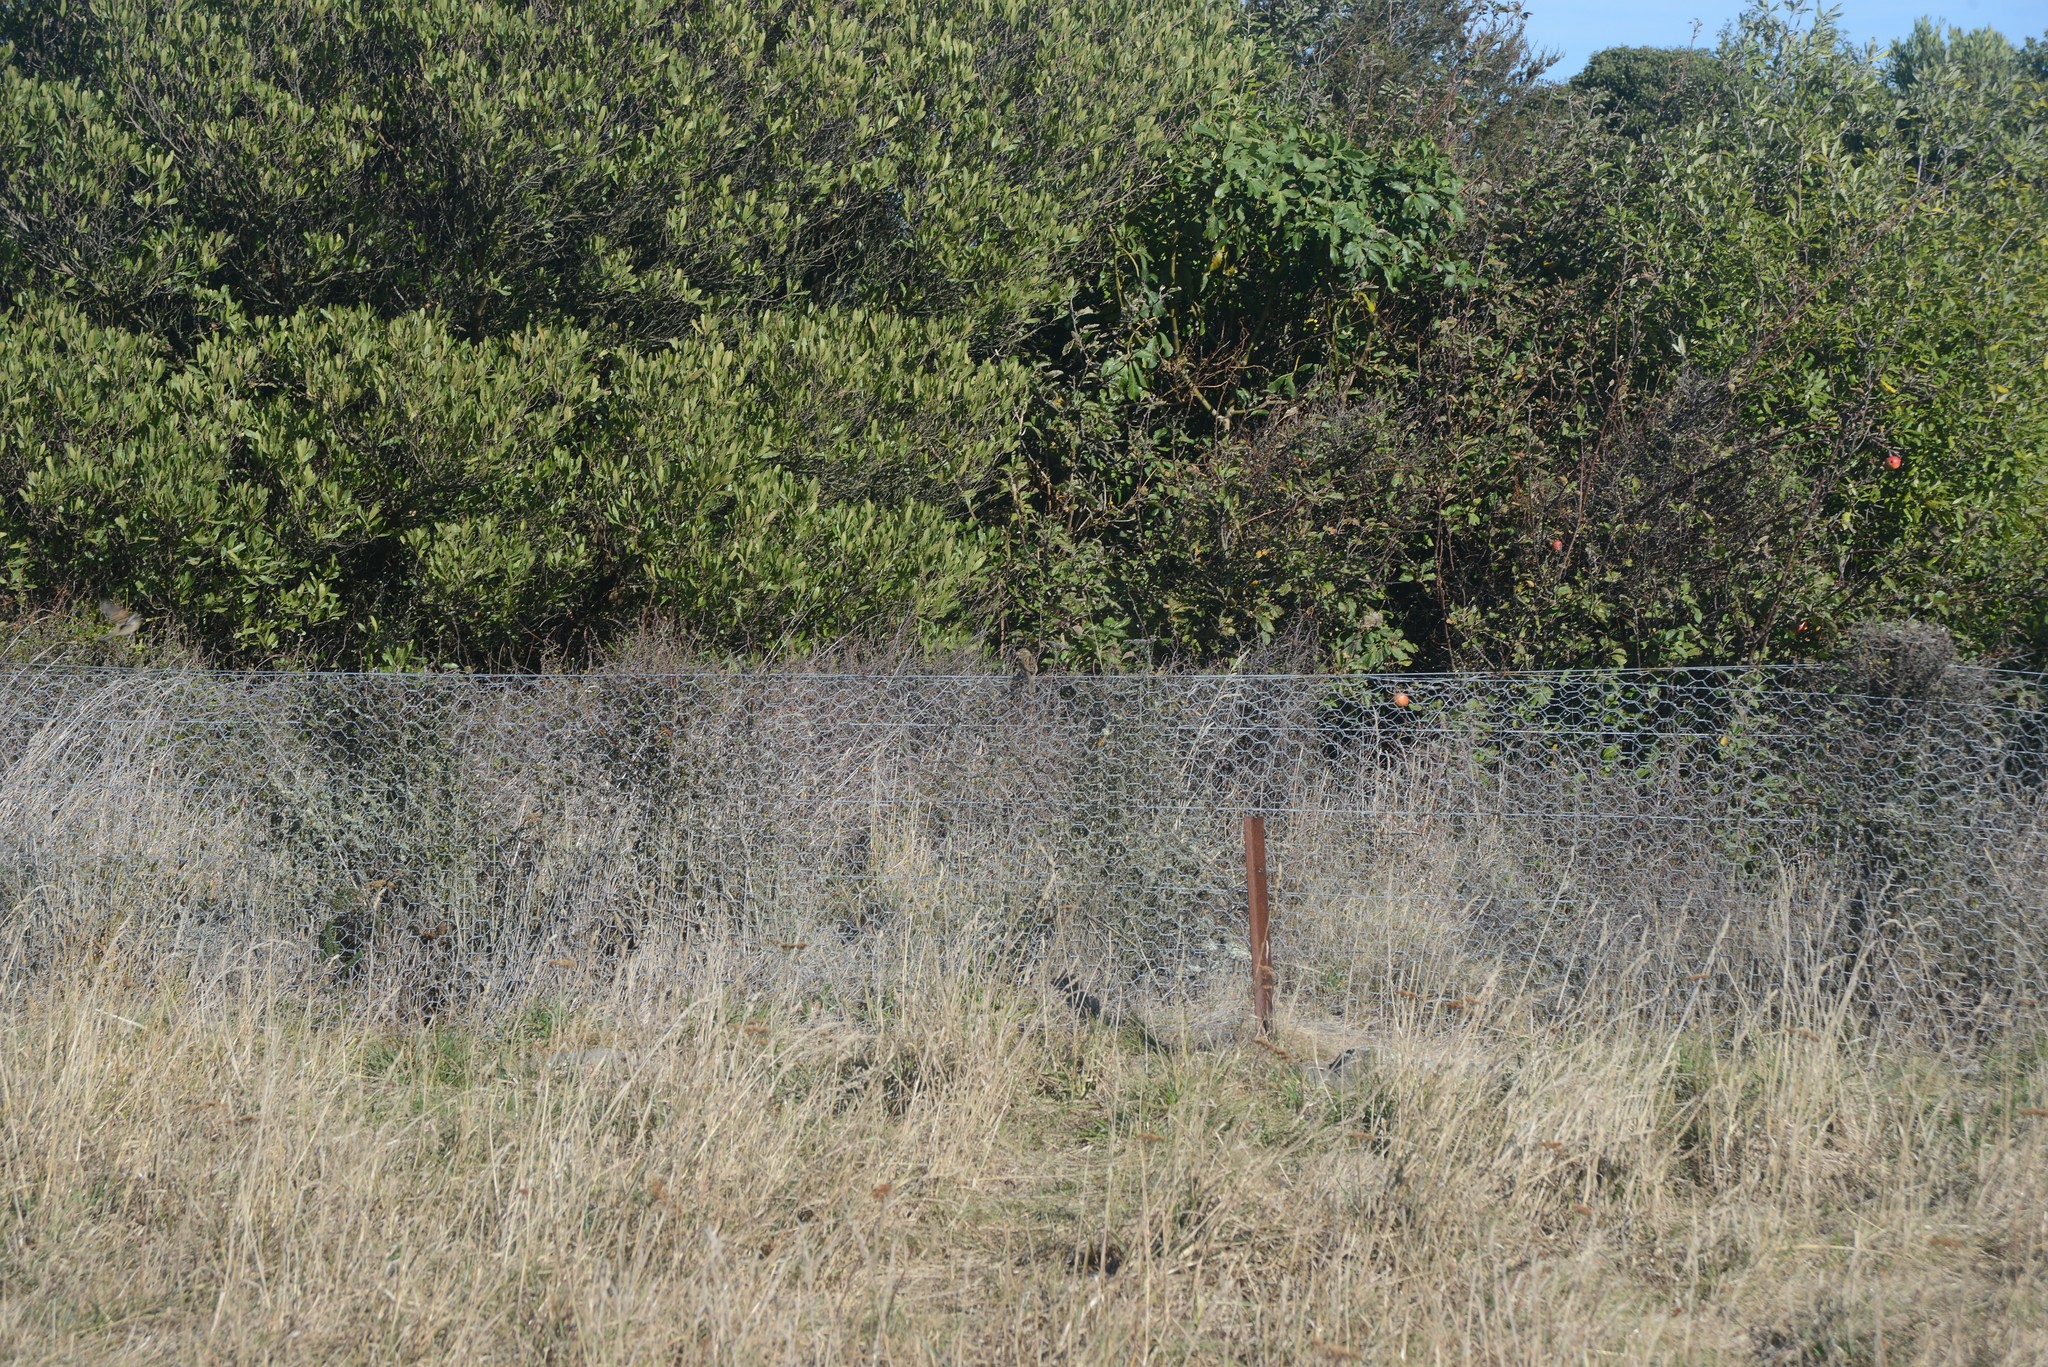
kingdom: Animalia
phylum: Chordata
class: Aves
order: Passeriformes
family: Passeridae
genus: Passer
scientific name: Passer domesticus
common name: House sparrow
